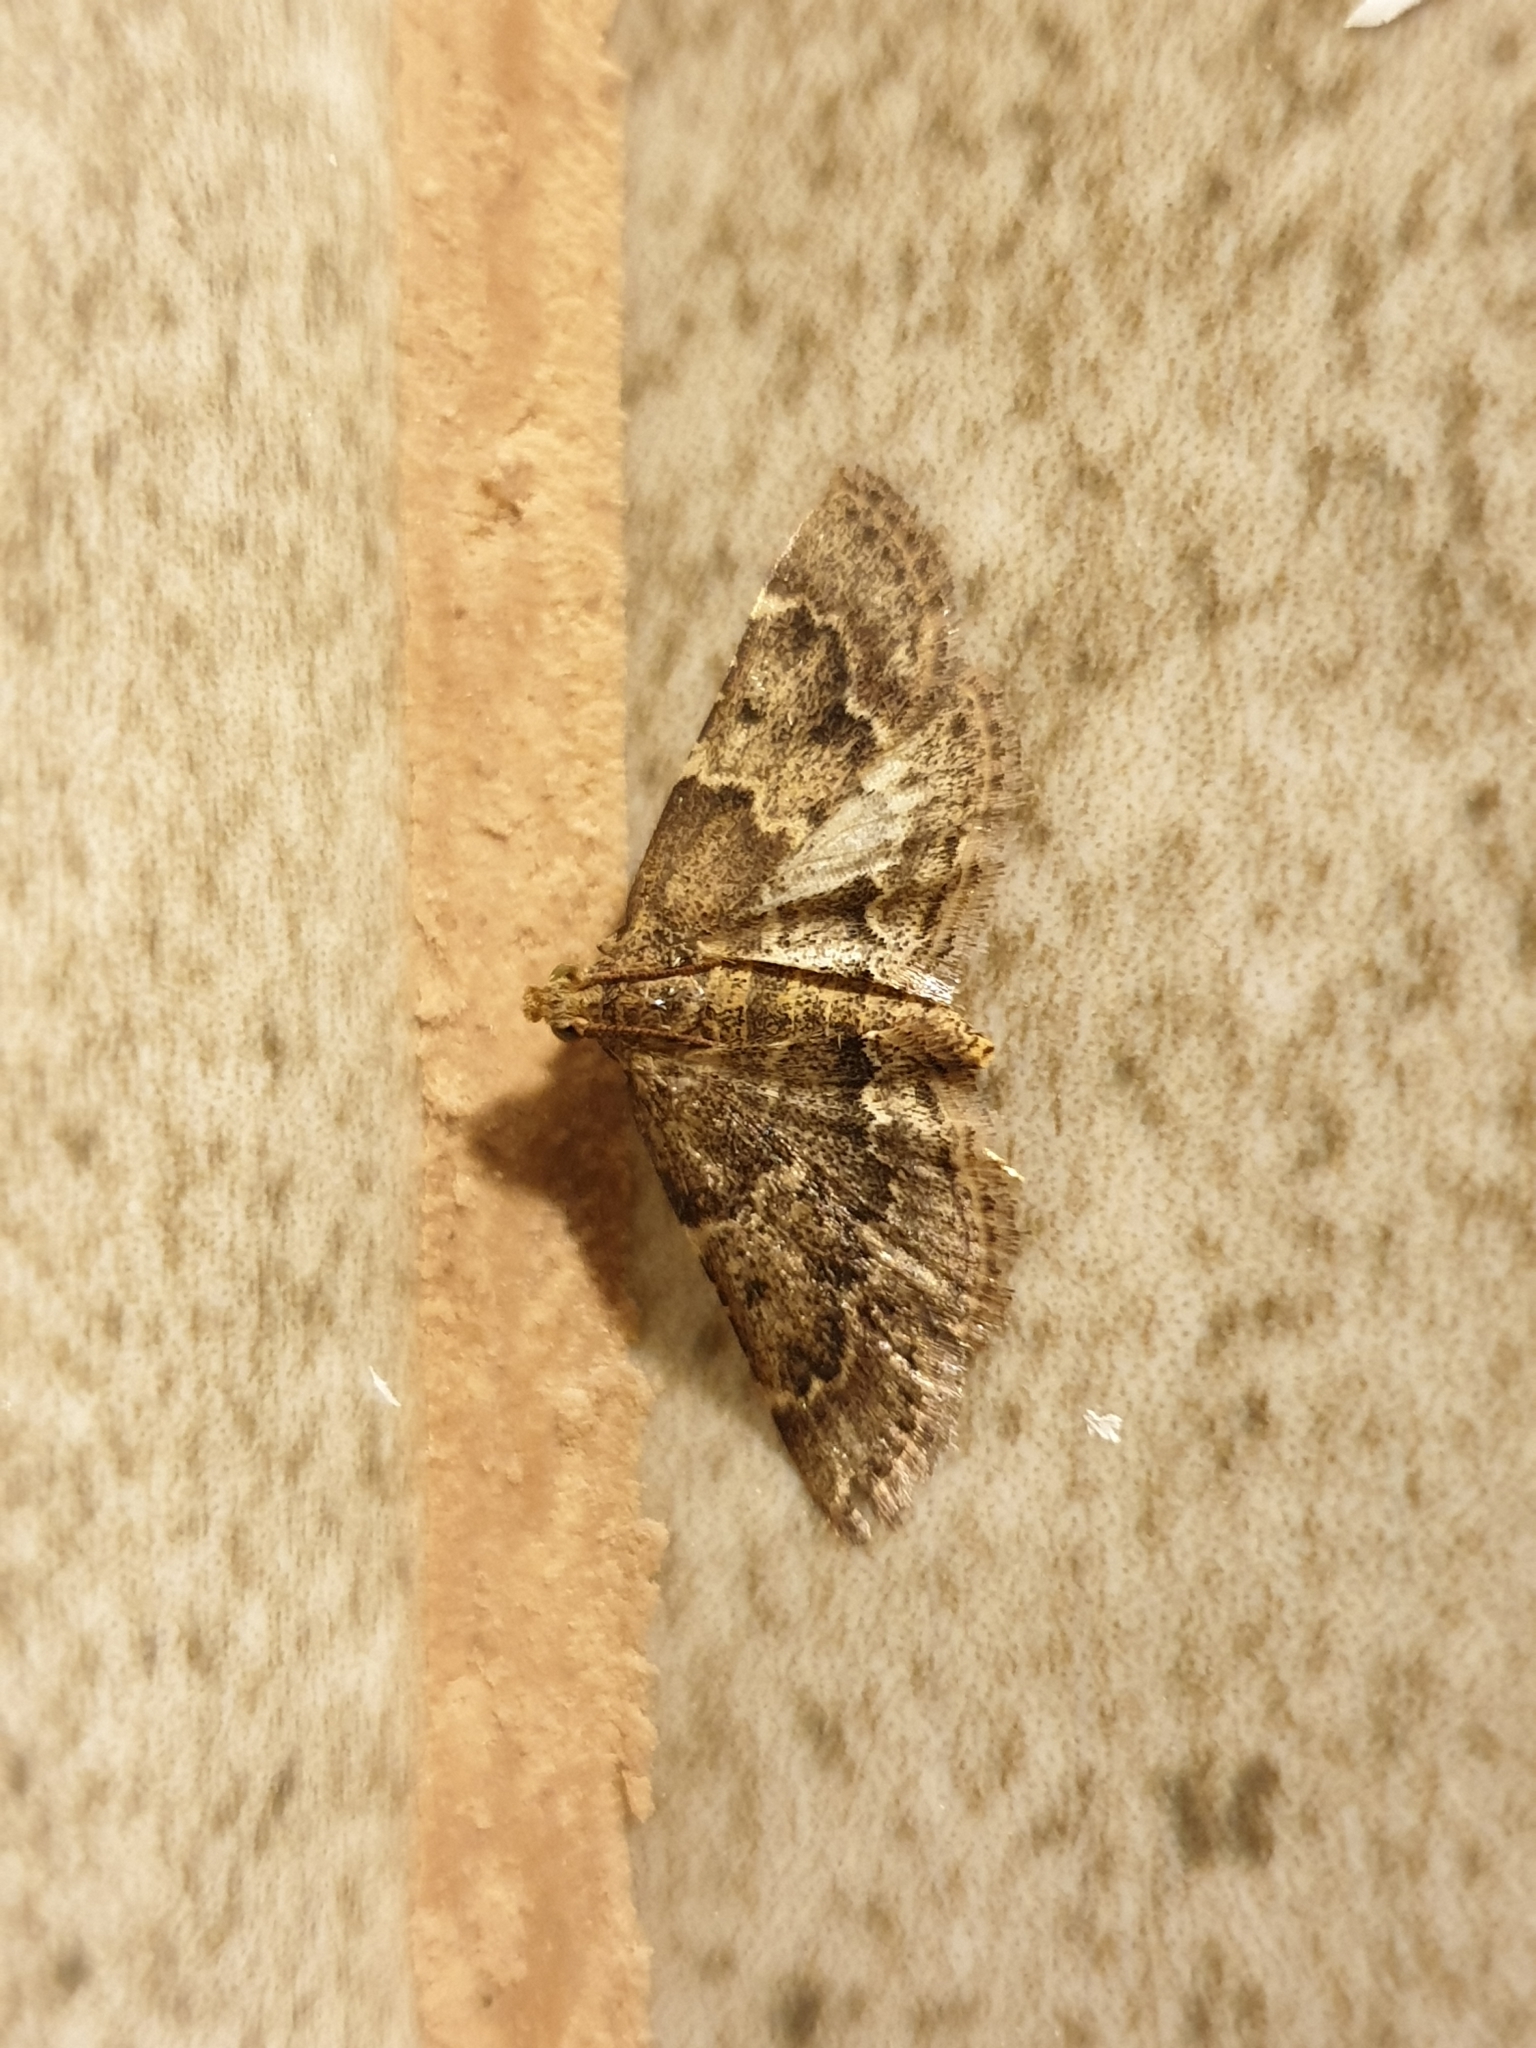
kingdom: Animalia
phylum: Arthropoda
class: Insecta
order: Lepidoptera
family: Pyralidae
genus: Pyralis
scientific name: Pyralis manihotalis
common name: Moth
